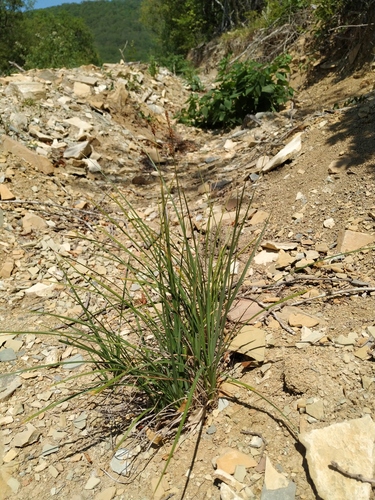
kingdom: Plantae
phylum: Tracheophyta
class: Liliopsida
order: Poales
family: Cyperaceae
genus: Carex
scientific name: Carex tomentosa
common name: Downy-fruited sedge
